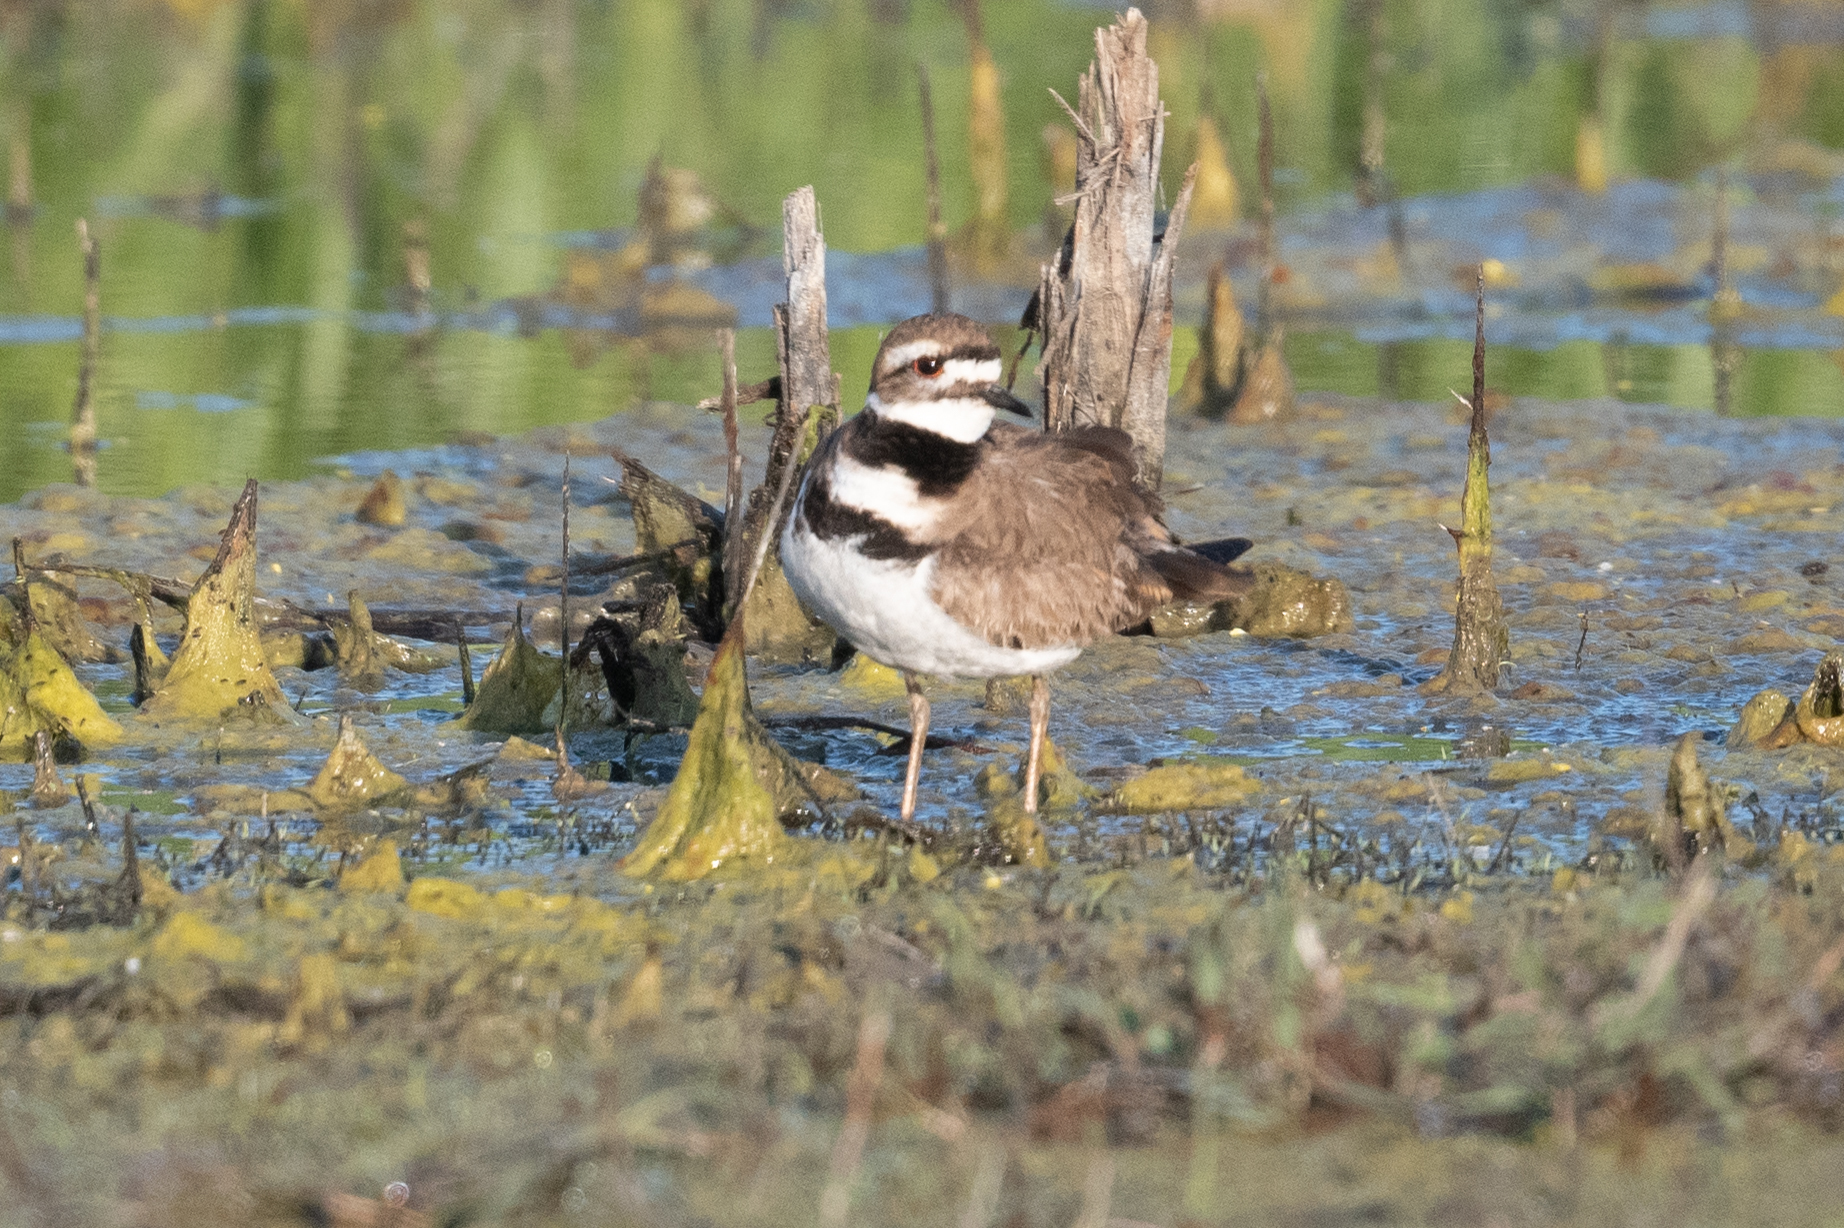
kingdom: Animalia
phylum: Chordata
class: Aves
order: Charadriiformes
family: Charadriidae
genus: Charadrius
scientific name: Charadrius vociferus
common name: Killdeer
